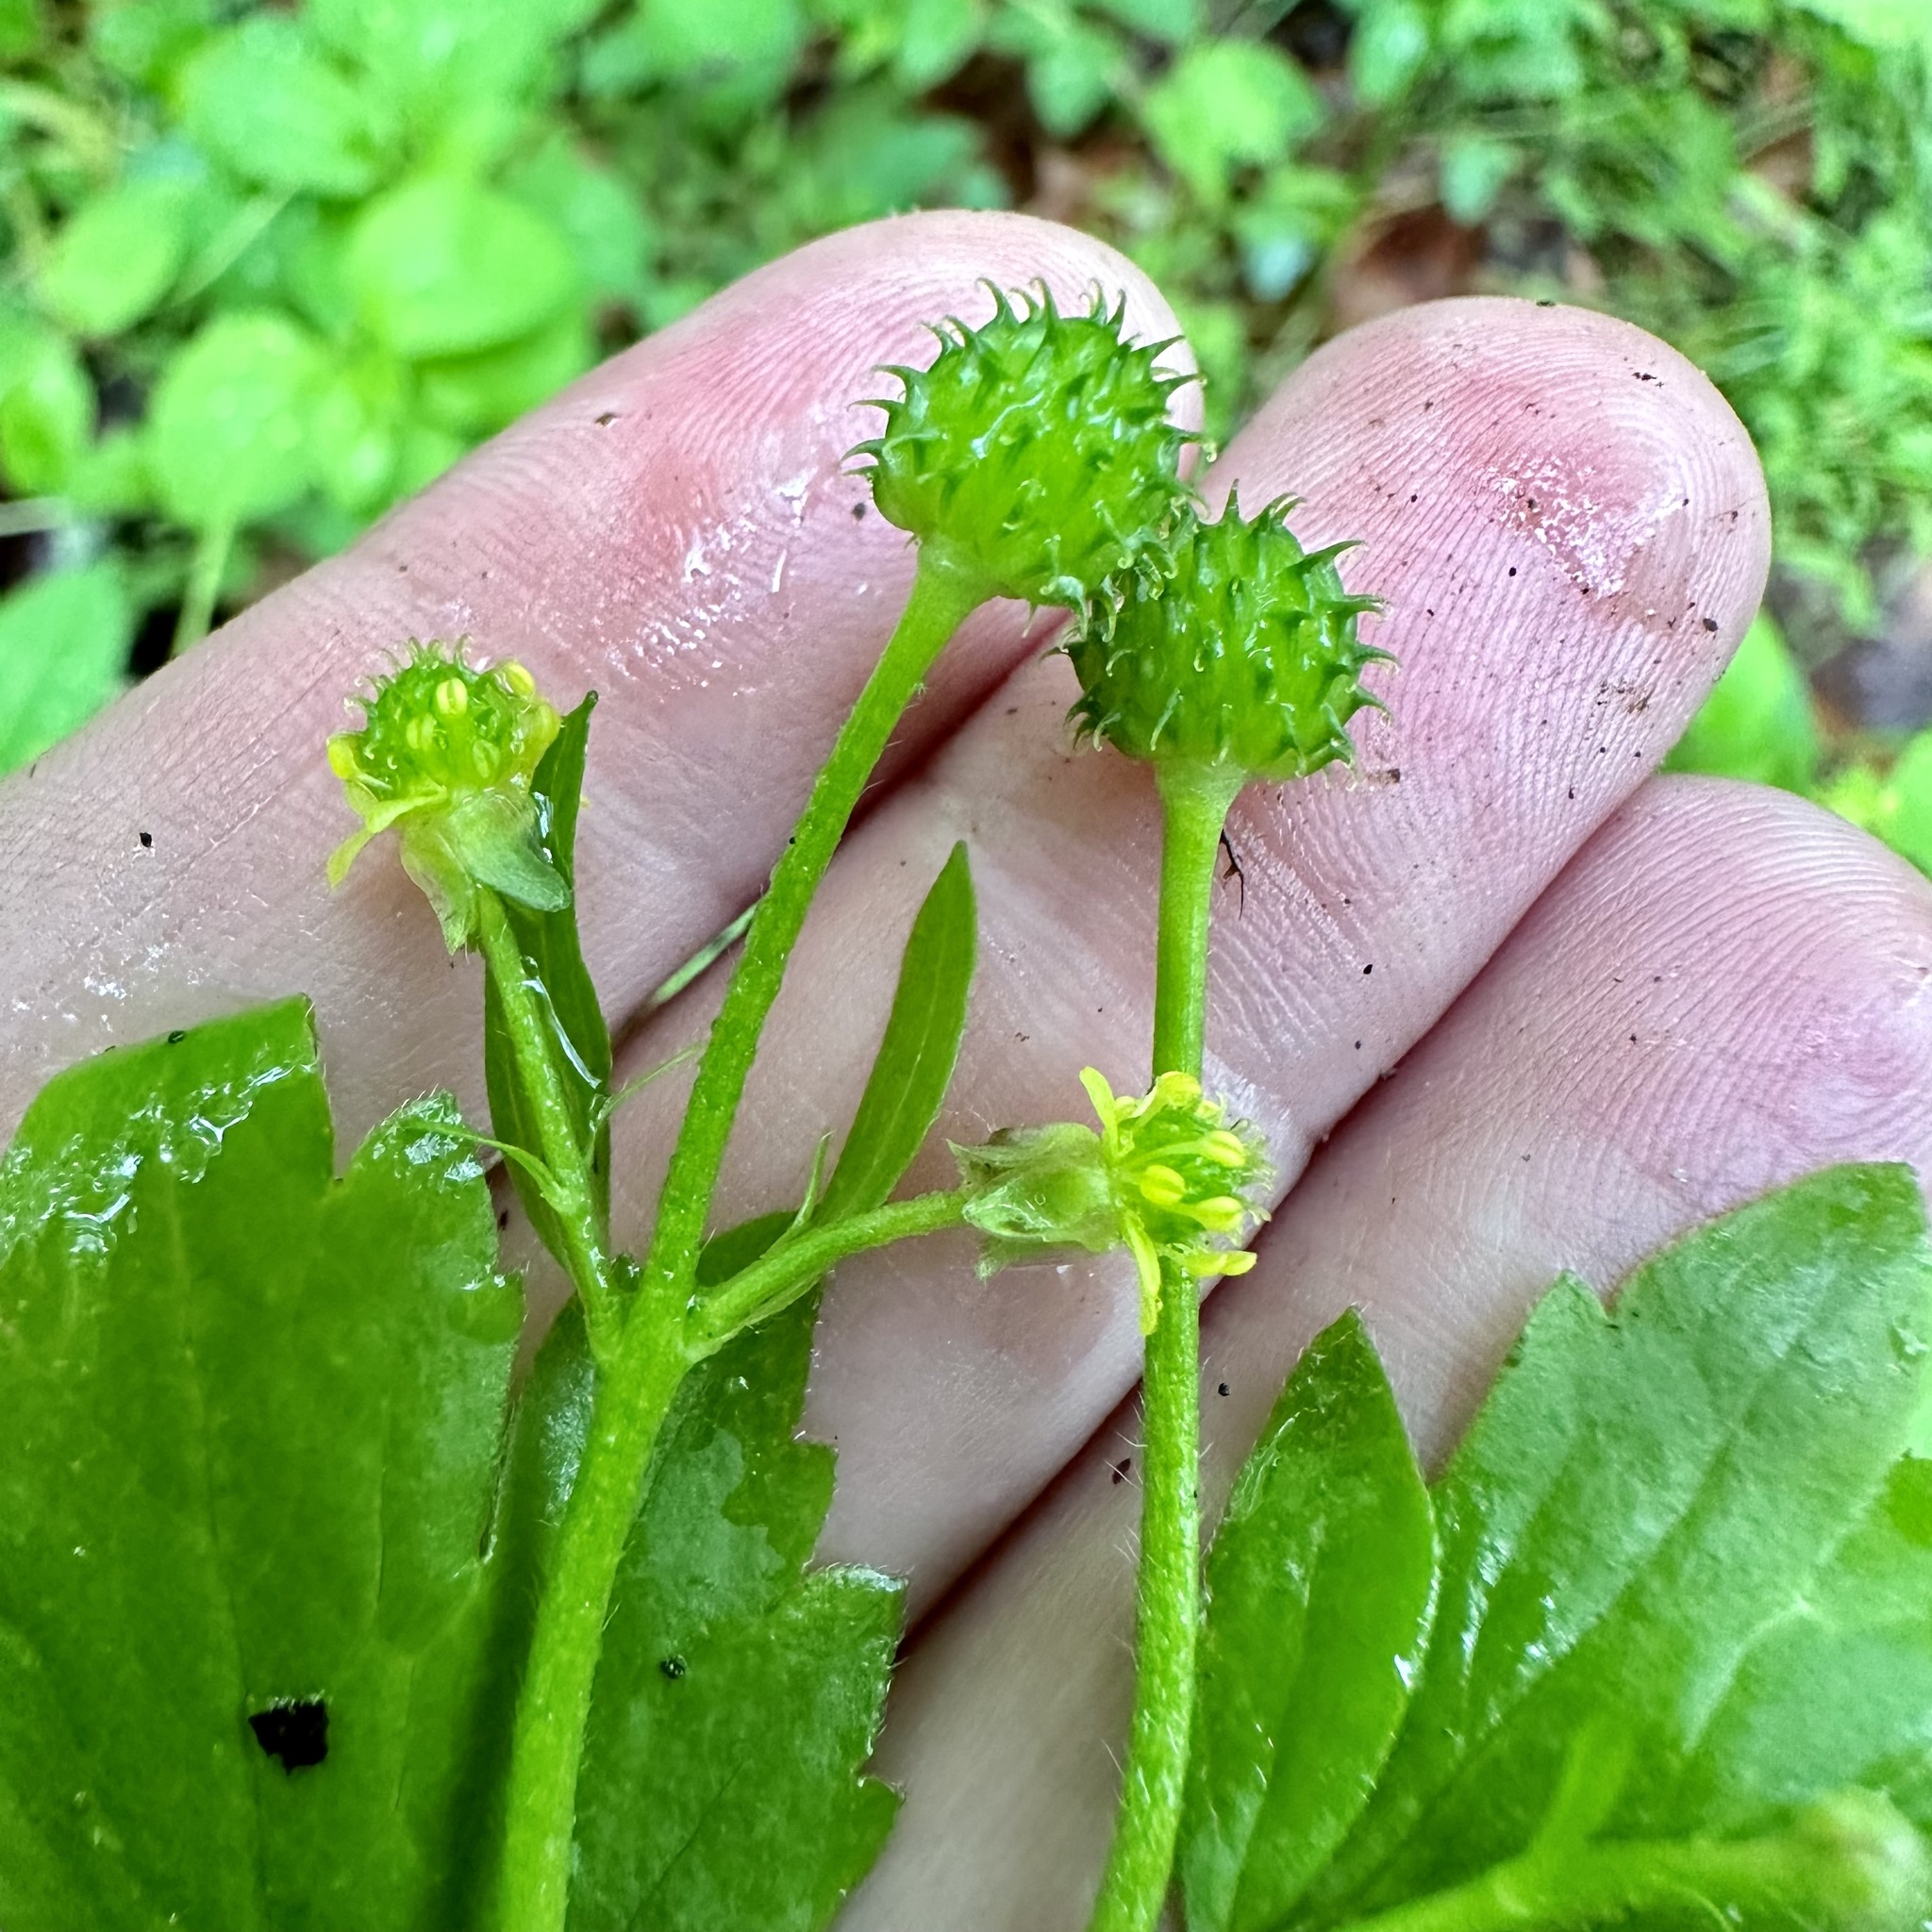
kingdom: Plantae
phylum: Tracheophyta
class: Magnoliopsida
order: Ranunculales
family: Ranunculaceae
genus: Ranunculus
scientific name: Ranunculus recurvatus
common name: Blisterwort
